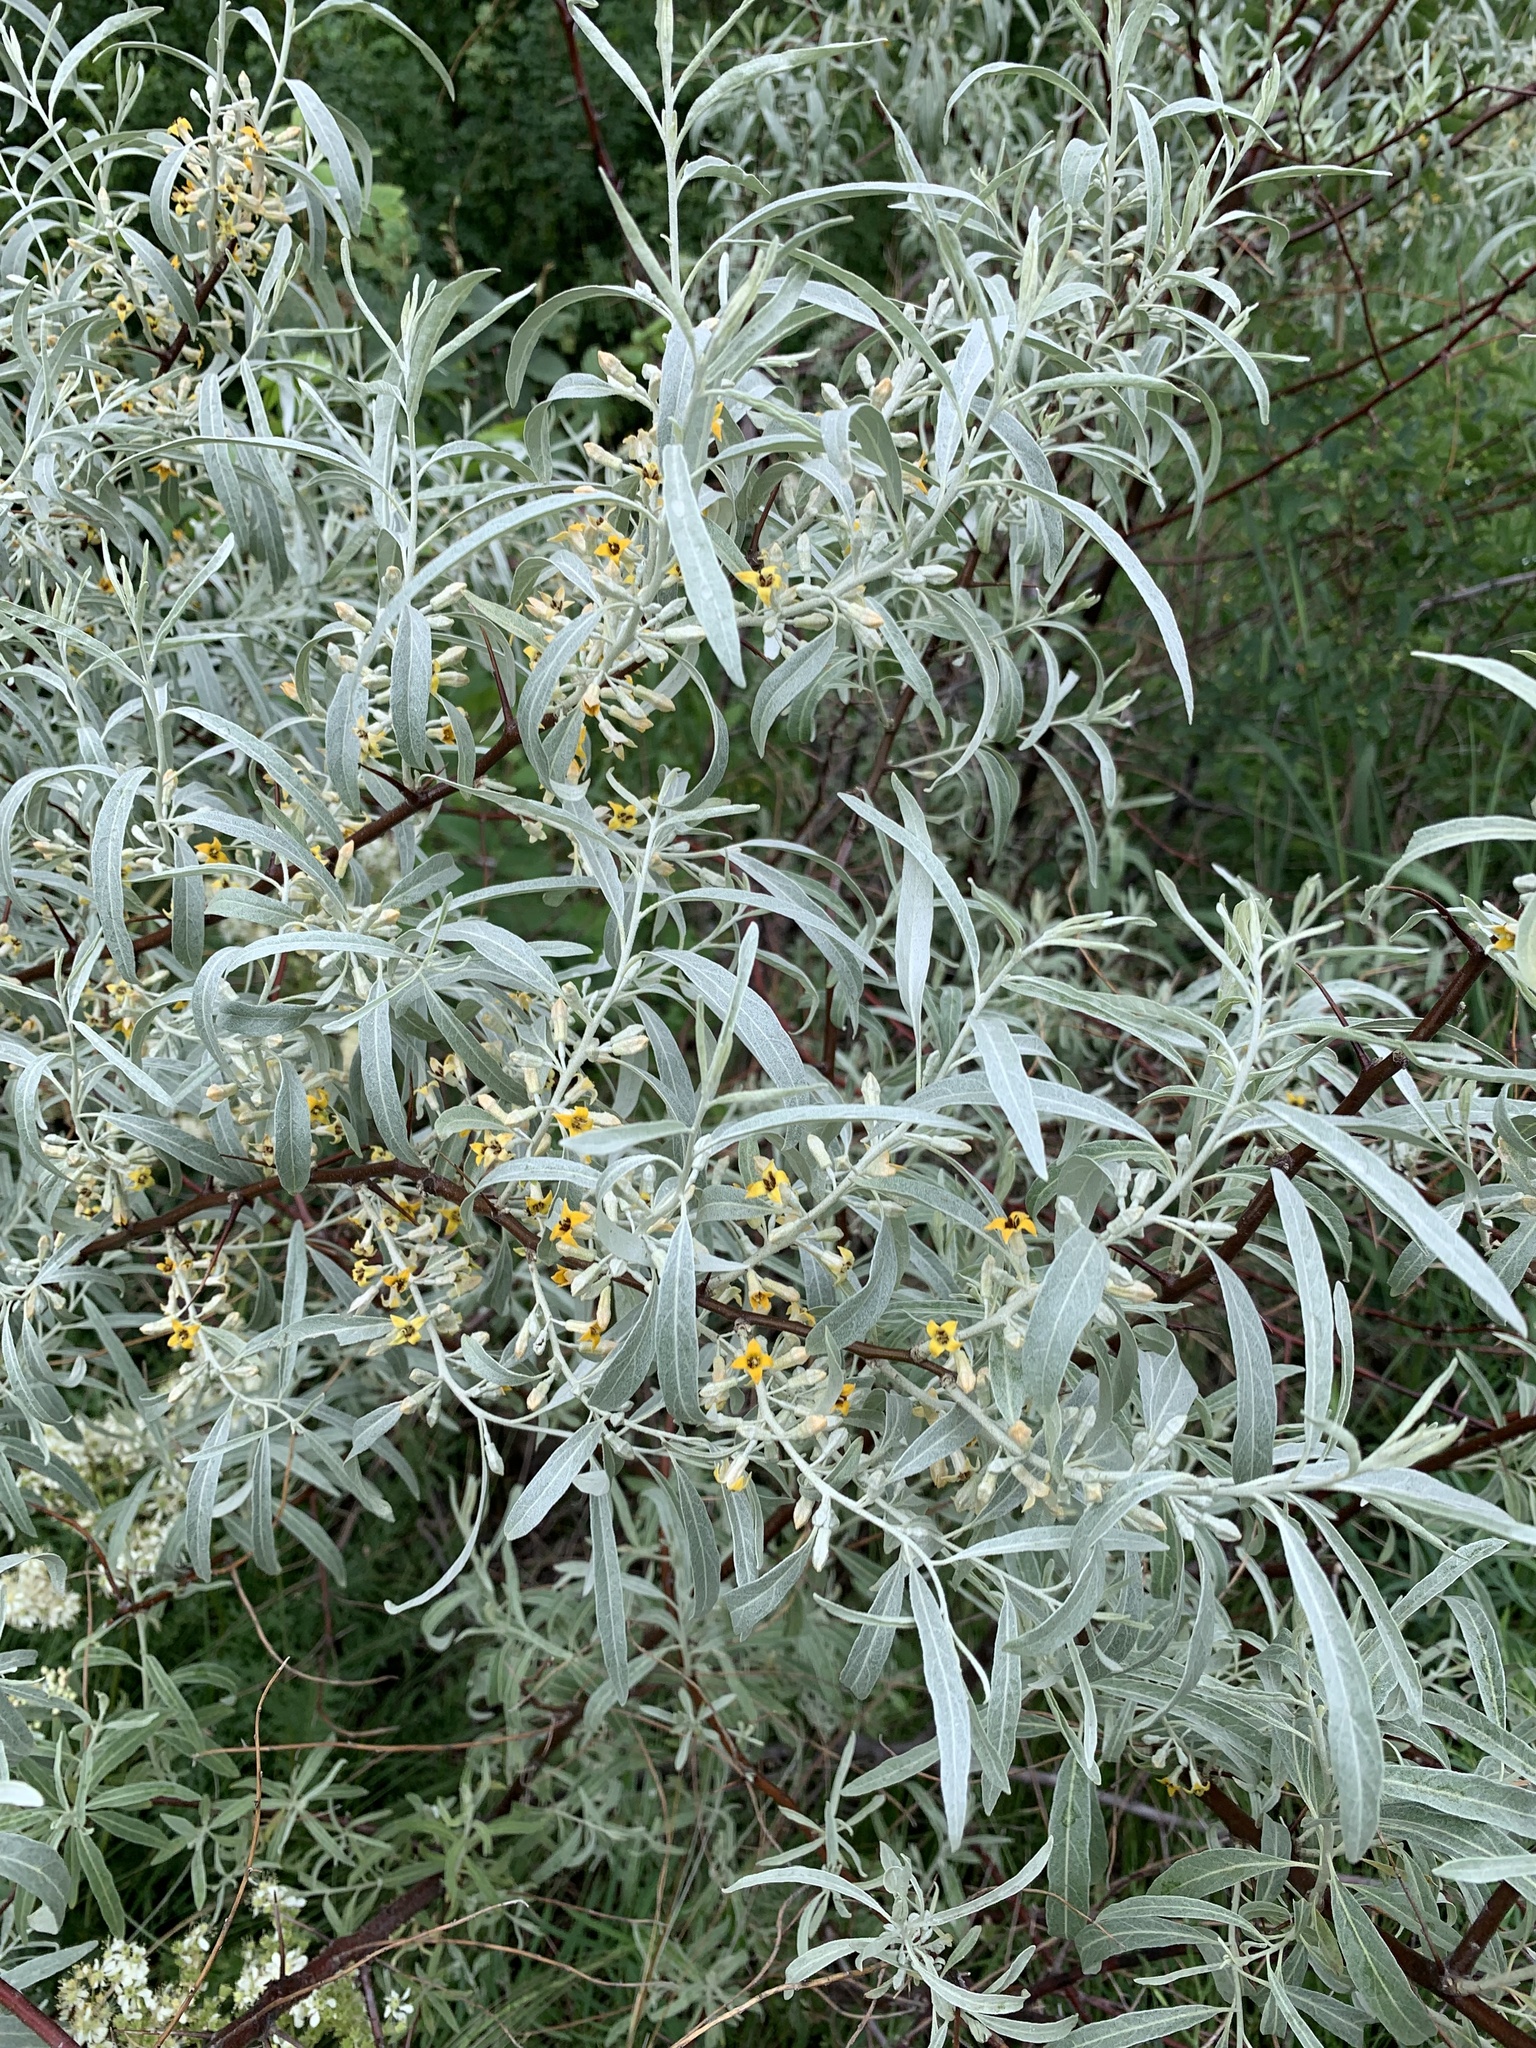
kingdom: Plantae
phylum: Tracheophyta
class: Magnoliopsida
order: Rosales
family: Elaeagnaceae
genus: Elaeagnus
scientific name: Elaeagnus angustifolia
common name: Russian olive
